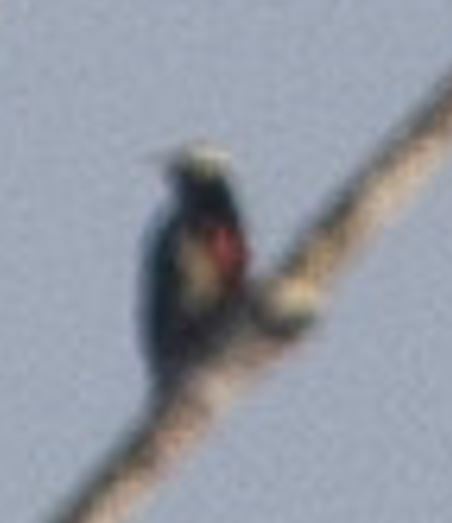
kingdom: Animalia
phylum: Chordata
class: Aves
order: Piciformes
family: Picidae
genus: Melanerpes
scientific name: Melanerpes cruentatus
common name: Yellow-tufted woodpecker
